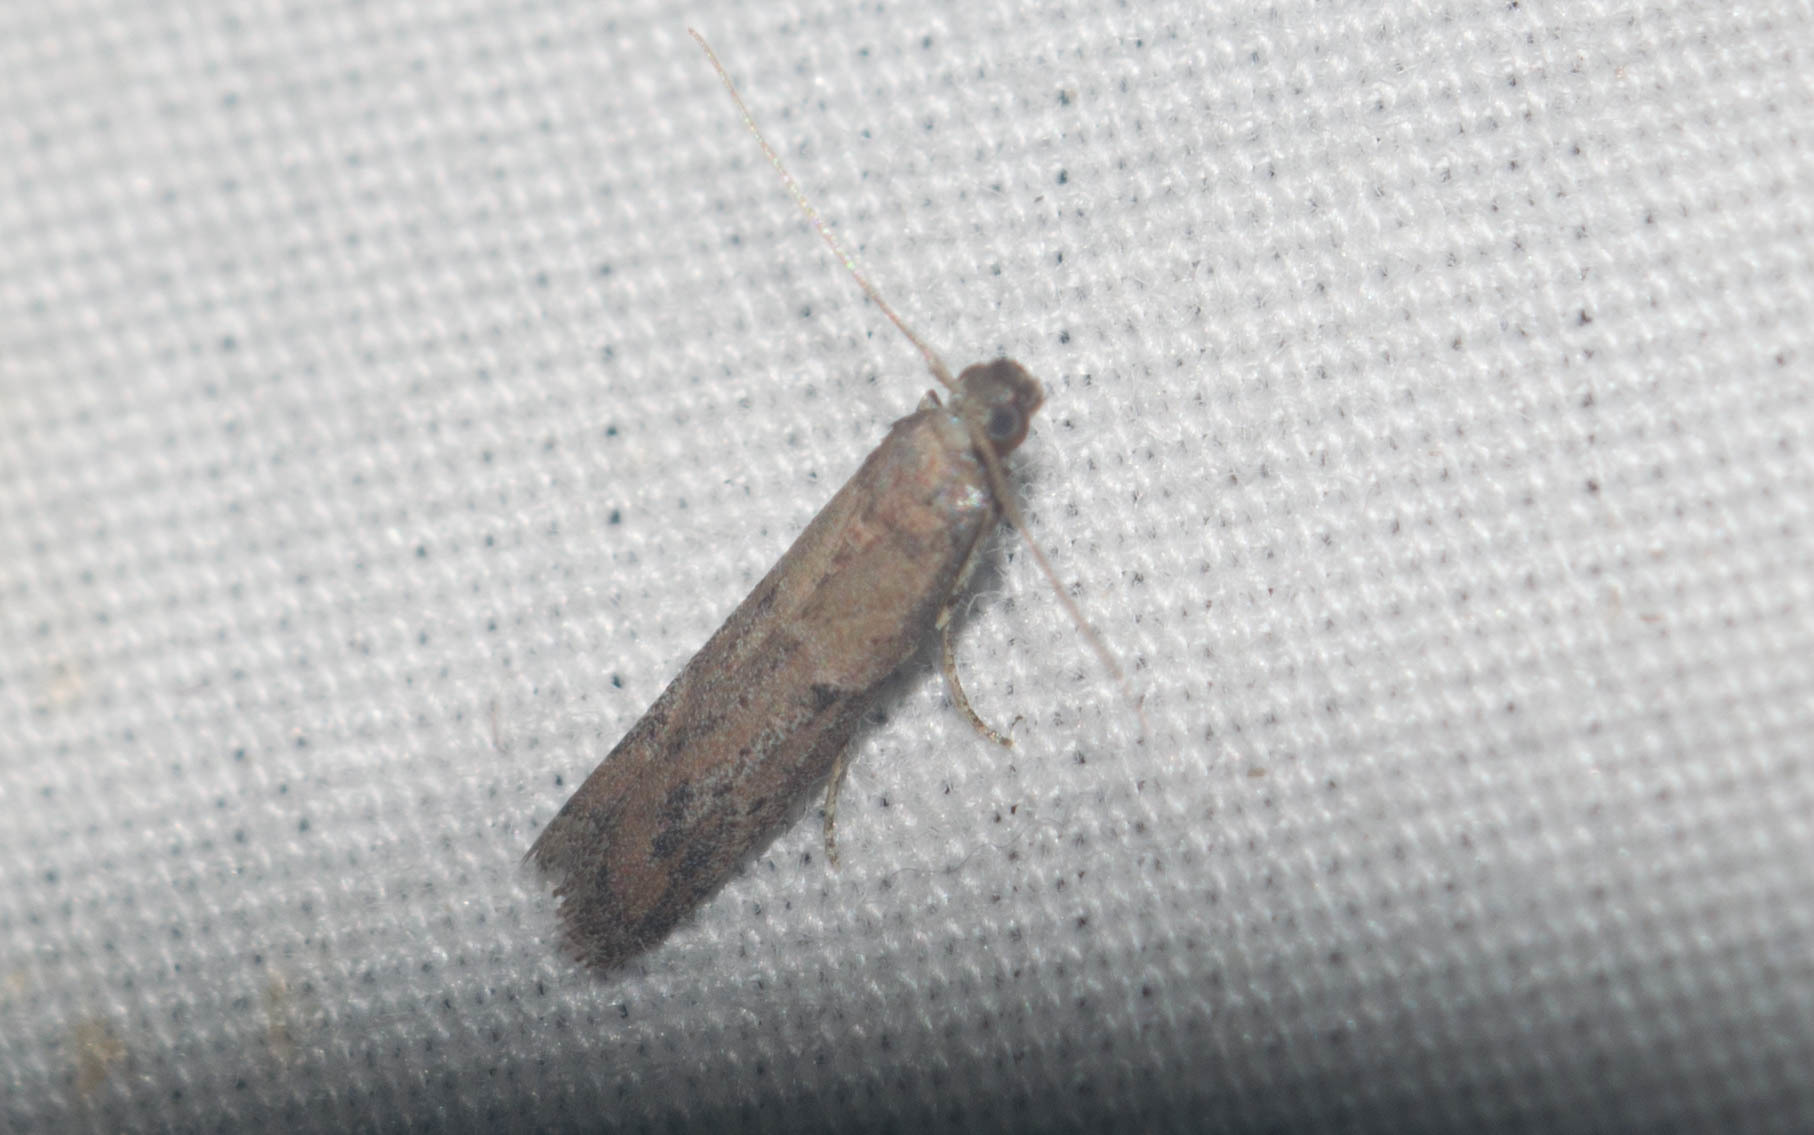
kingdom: Animalia
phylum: Arthropoda
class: Insecta
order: Lepidoptera
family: Pyralidae
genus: Ephestiodes
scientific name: Ephestiodes gilvescentella
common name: Moth
